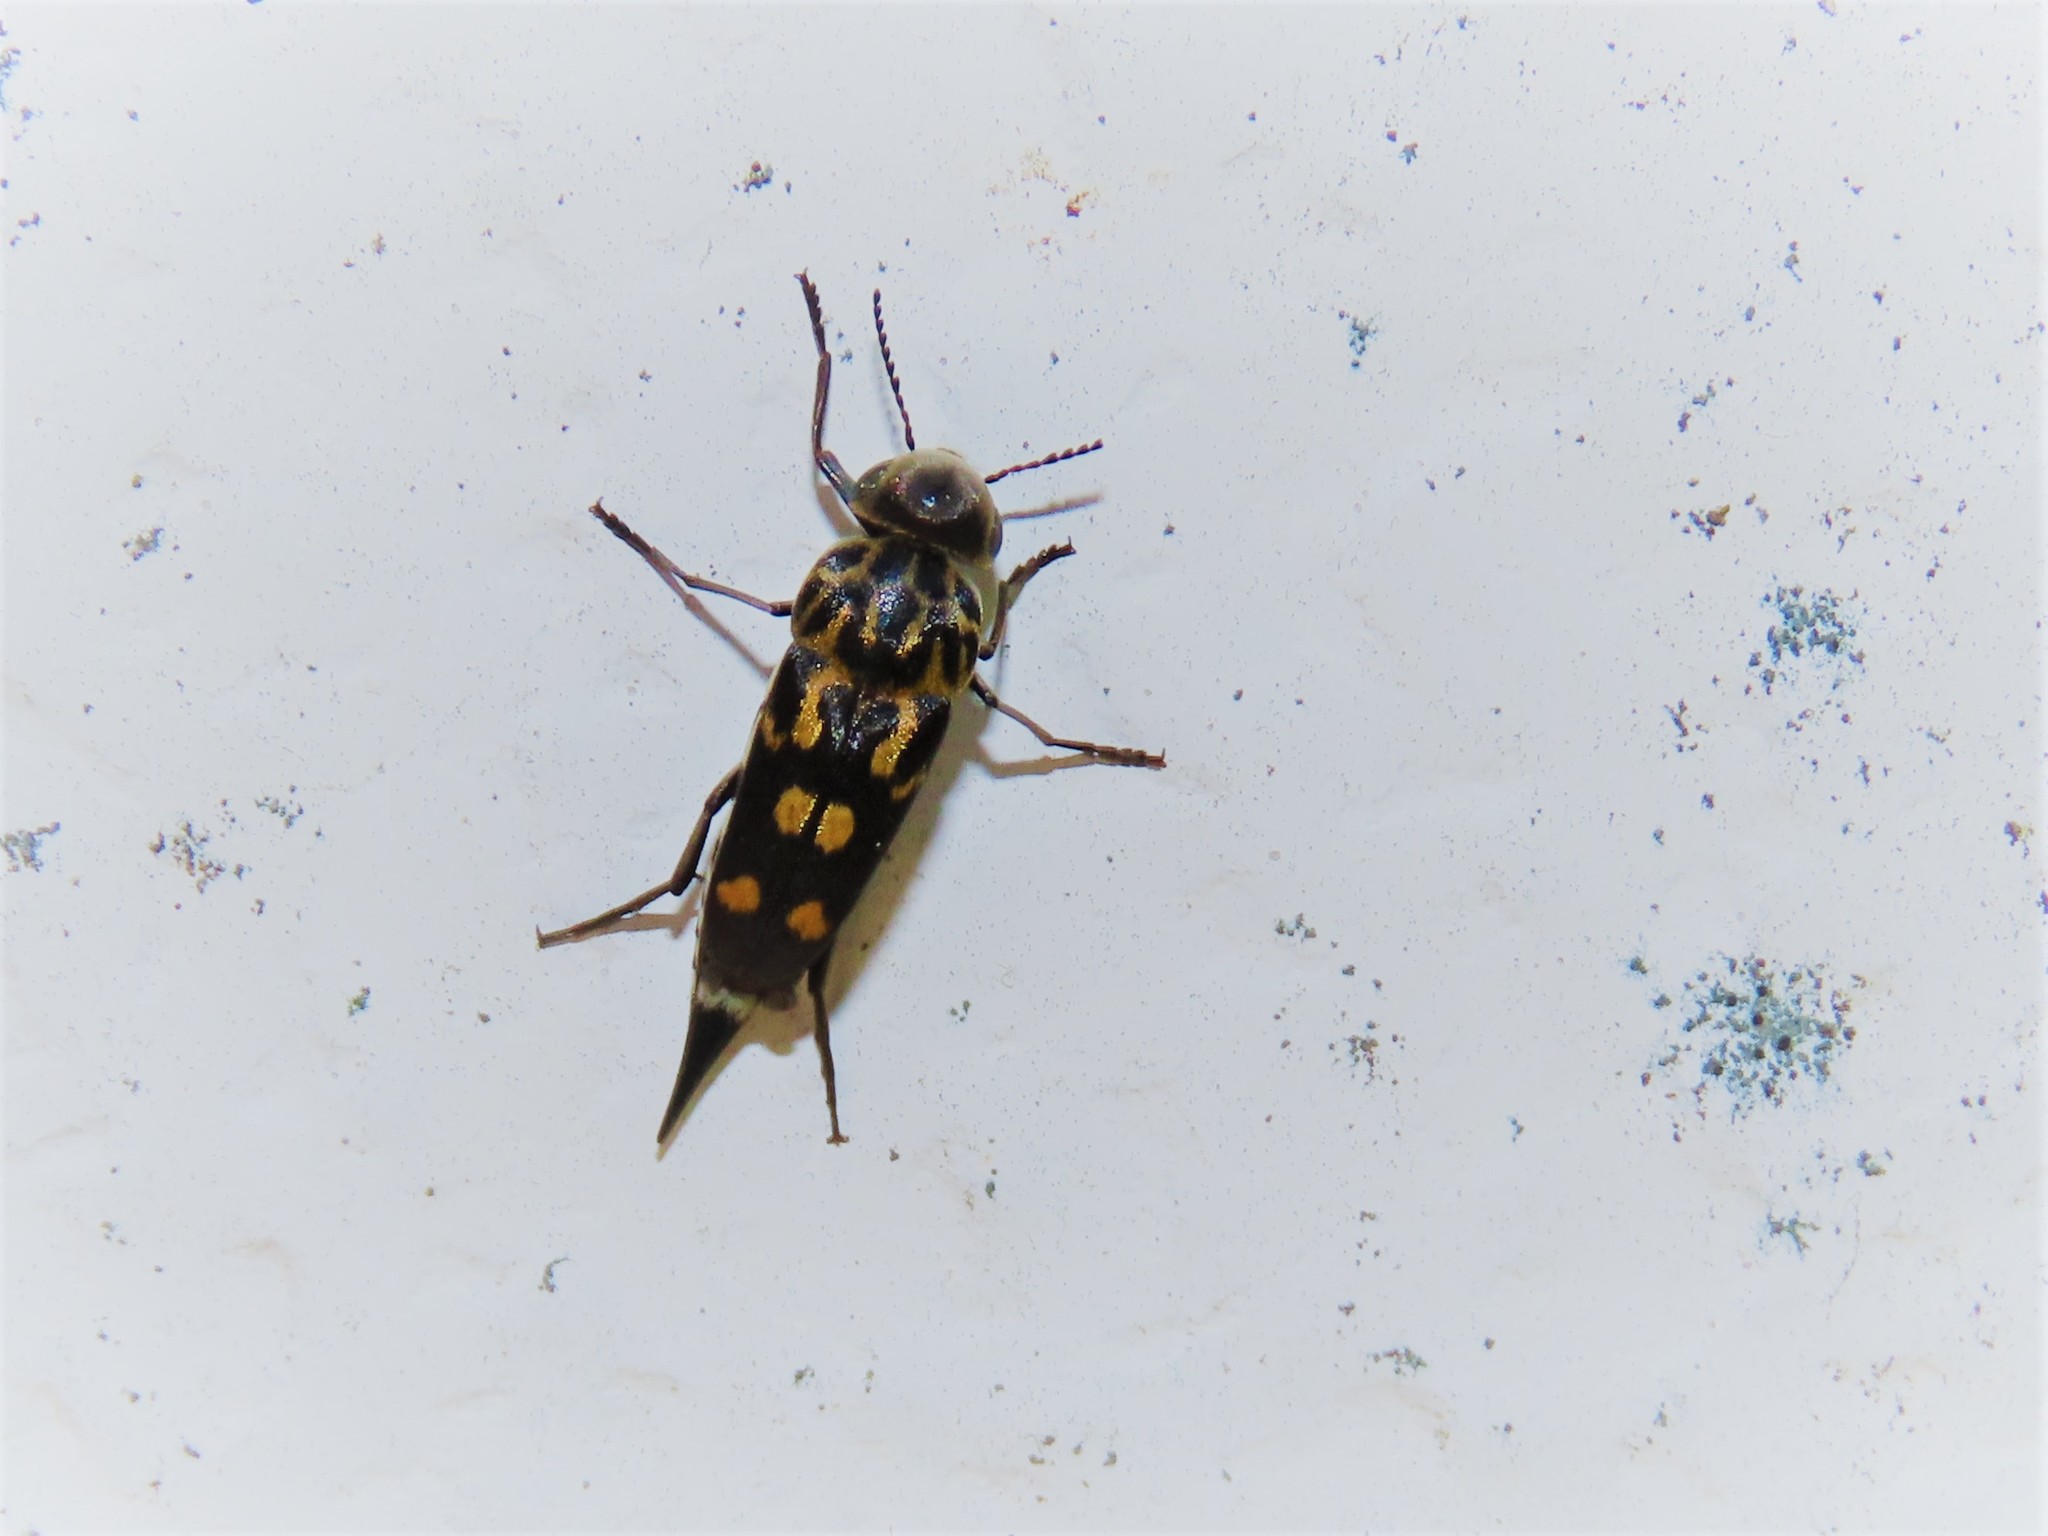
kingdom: Animalia
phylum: Arthropoda
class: Insecta
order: Coleoptera
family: Mordellidae
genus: Hoshihananomia
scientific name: Hoshihananomia octopunctata
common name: Eight-spotted tumbling flower beetle
